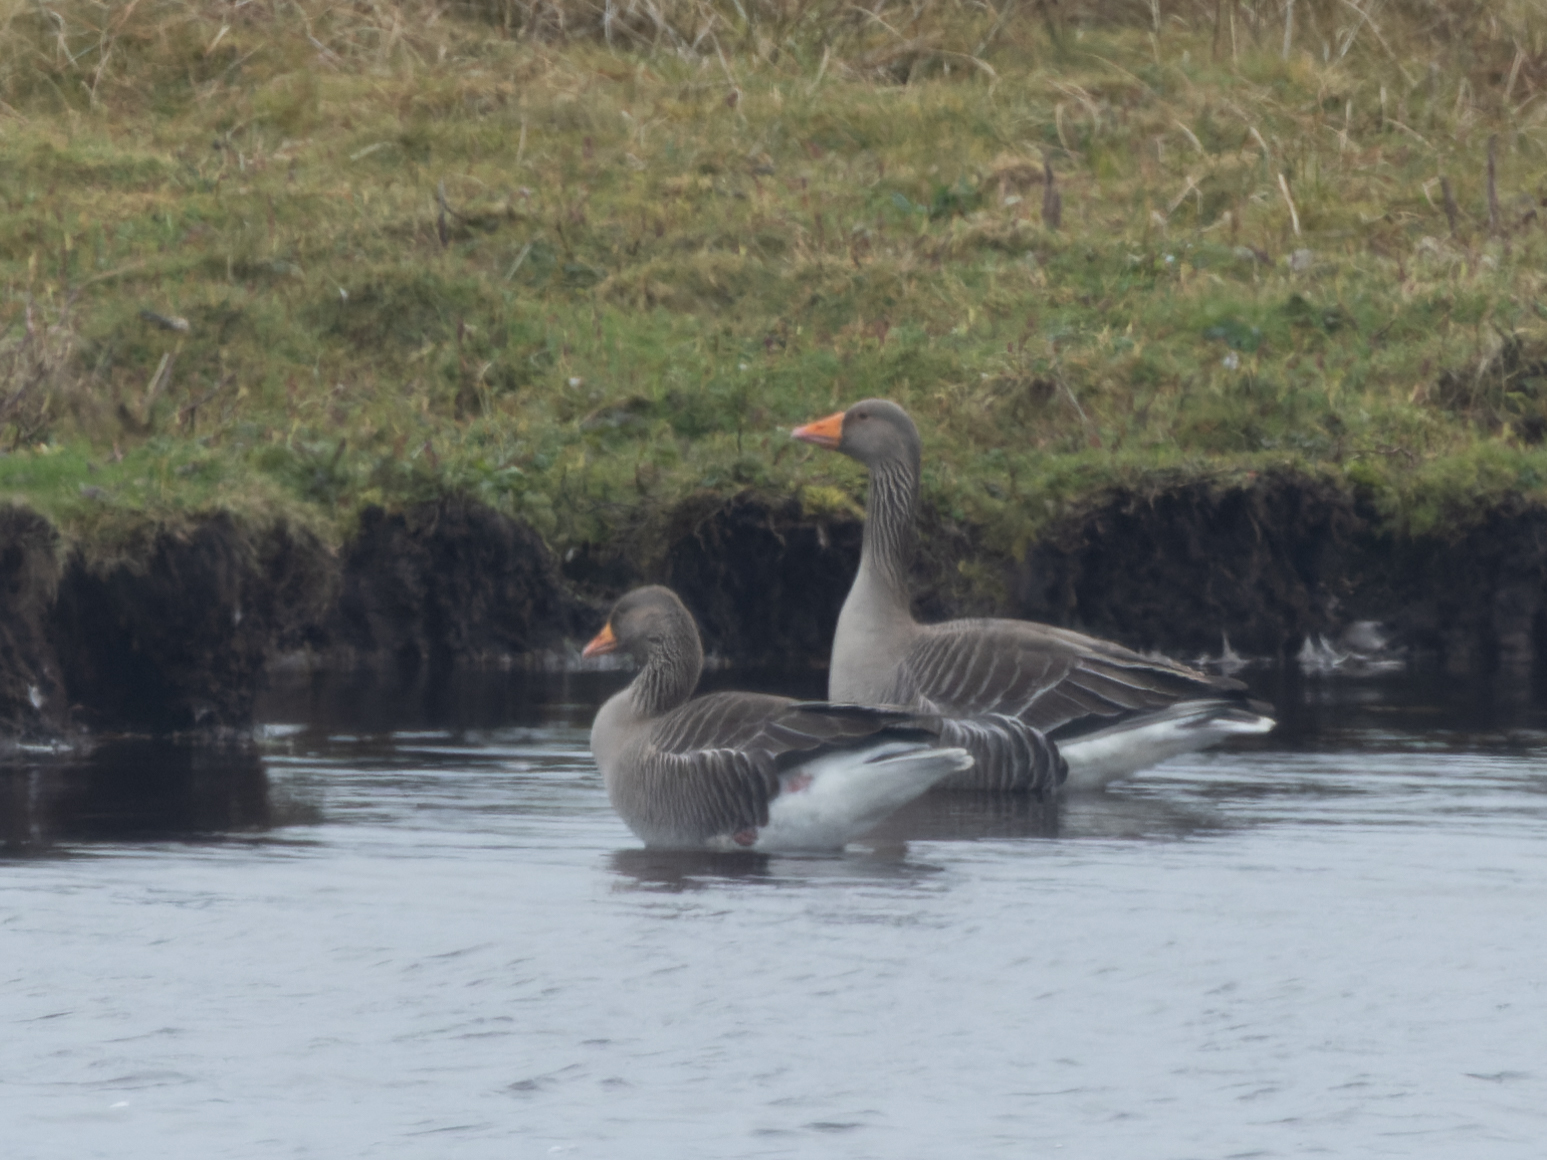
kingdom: Animalia
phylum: Chordata
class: Aves
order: Anseriformes
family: Anatidae
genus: Anser
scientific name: Anser anser
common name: Greylag goose
